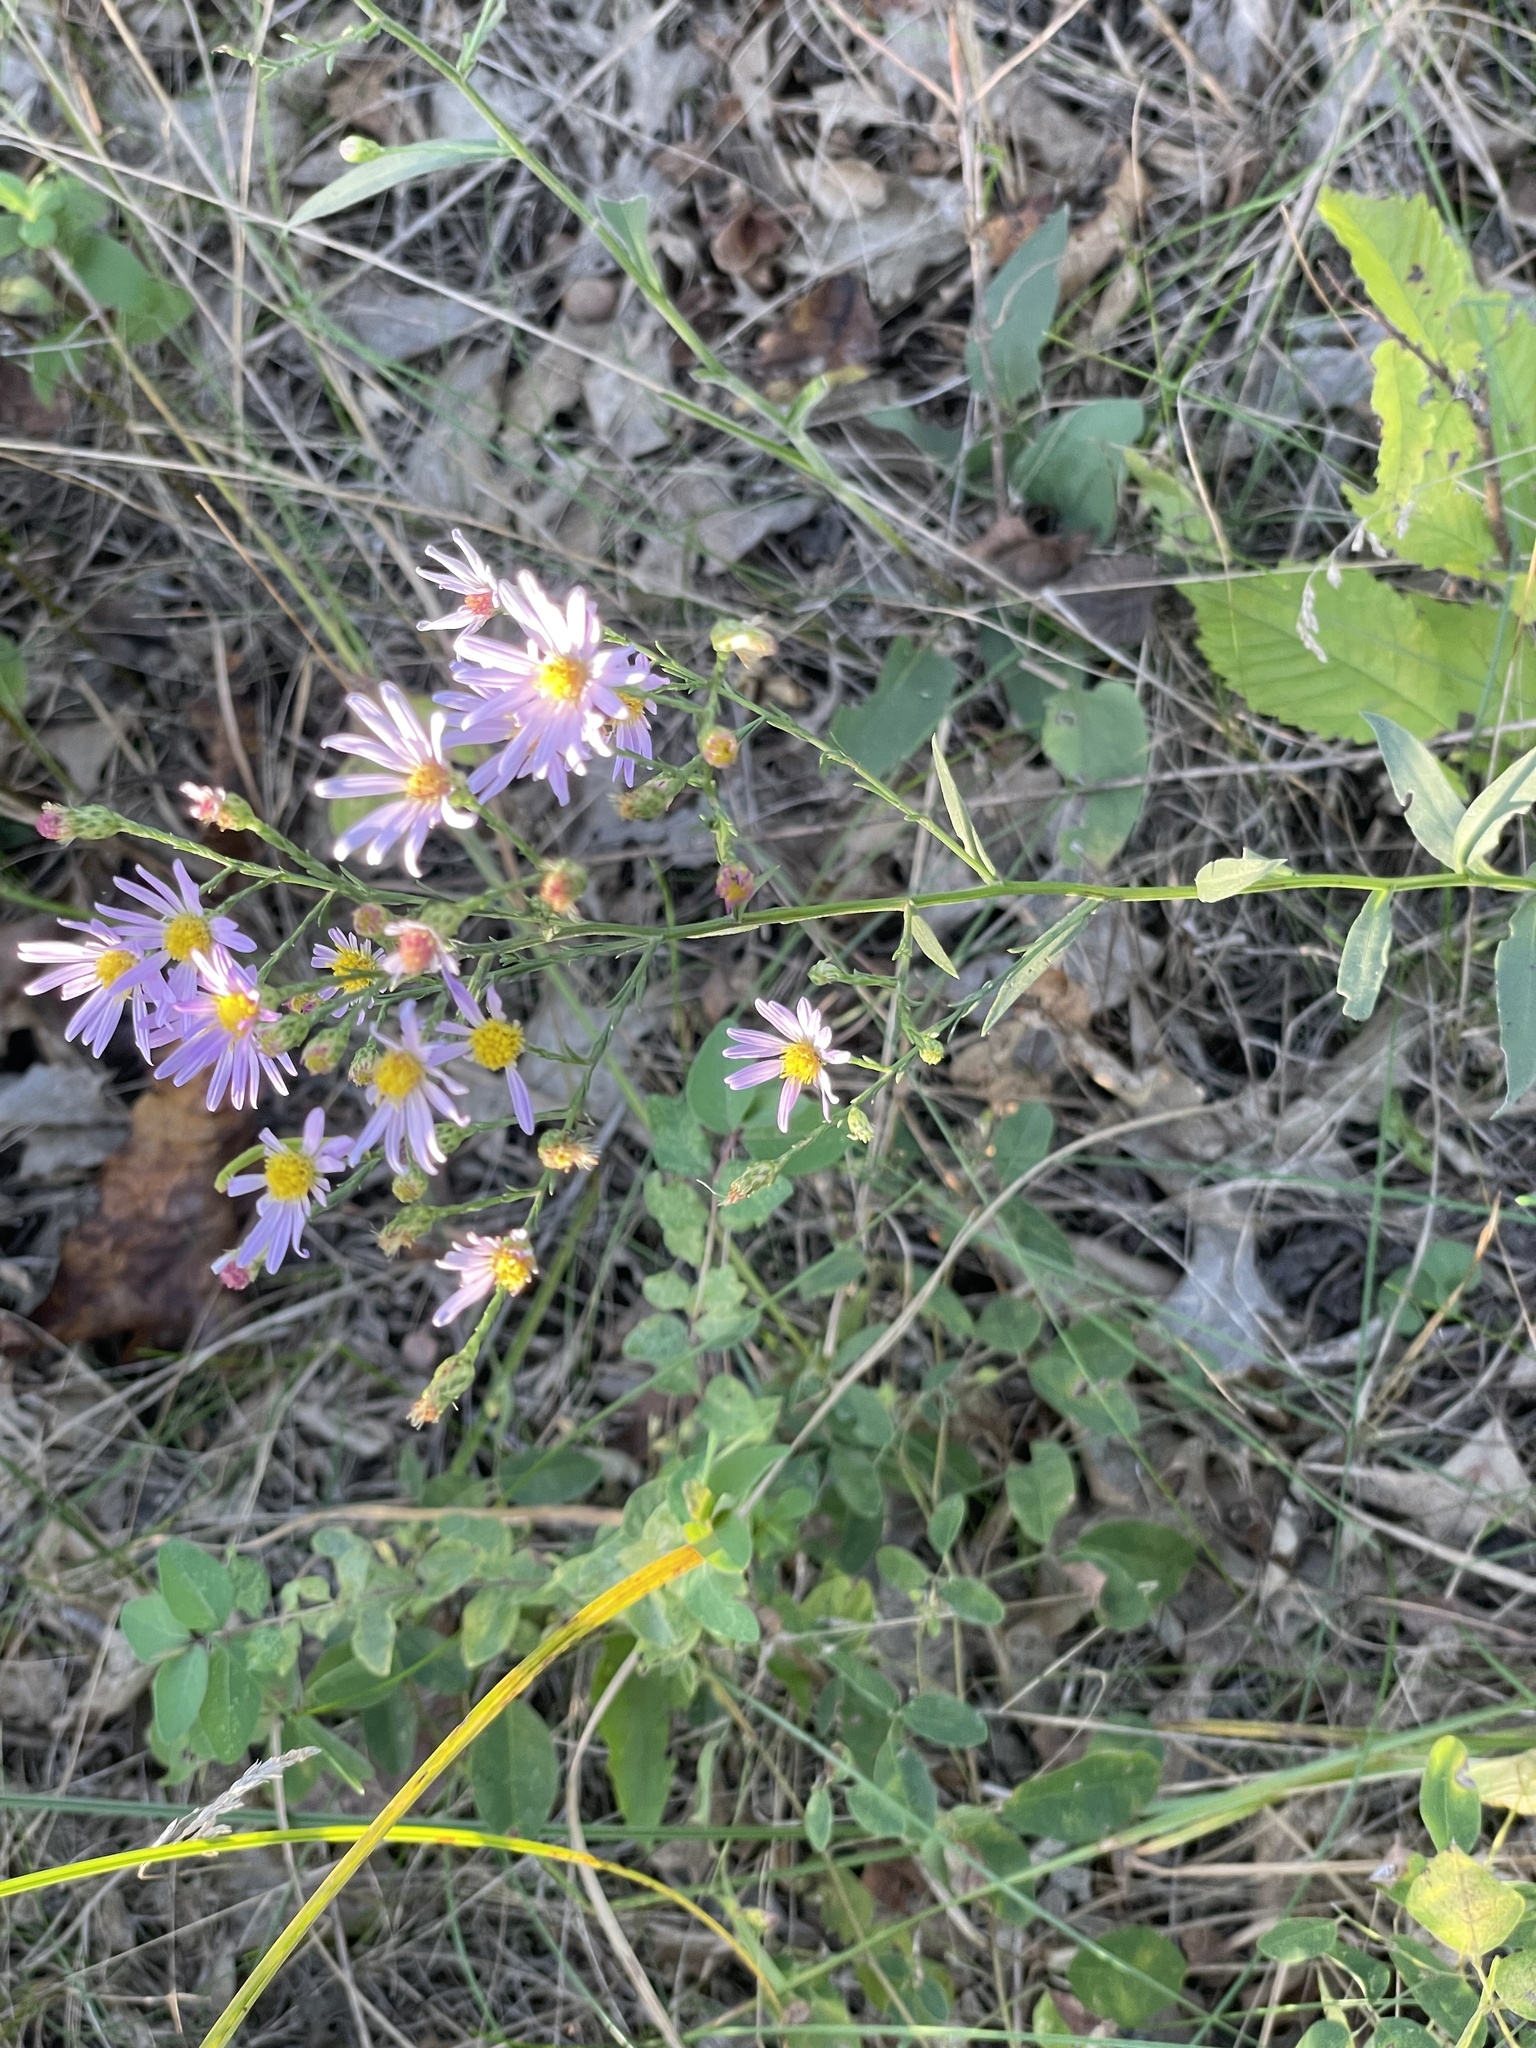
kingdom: Plantae
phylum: Tracheophyta
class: Magnoliopsida
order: Asterales
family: Asteraceae
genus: Symphyotrichum
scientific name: Symphyotrichum laeve
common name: Glaucous aster
